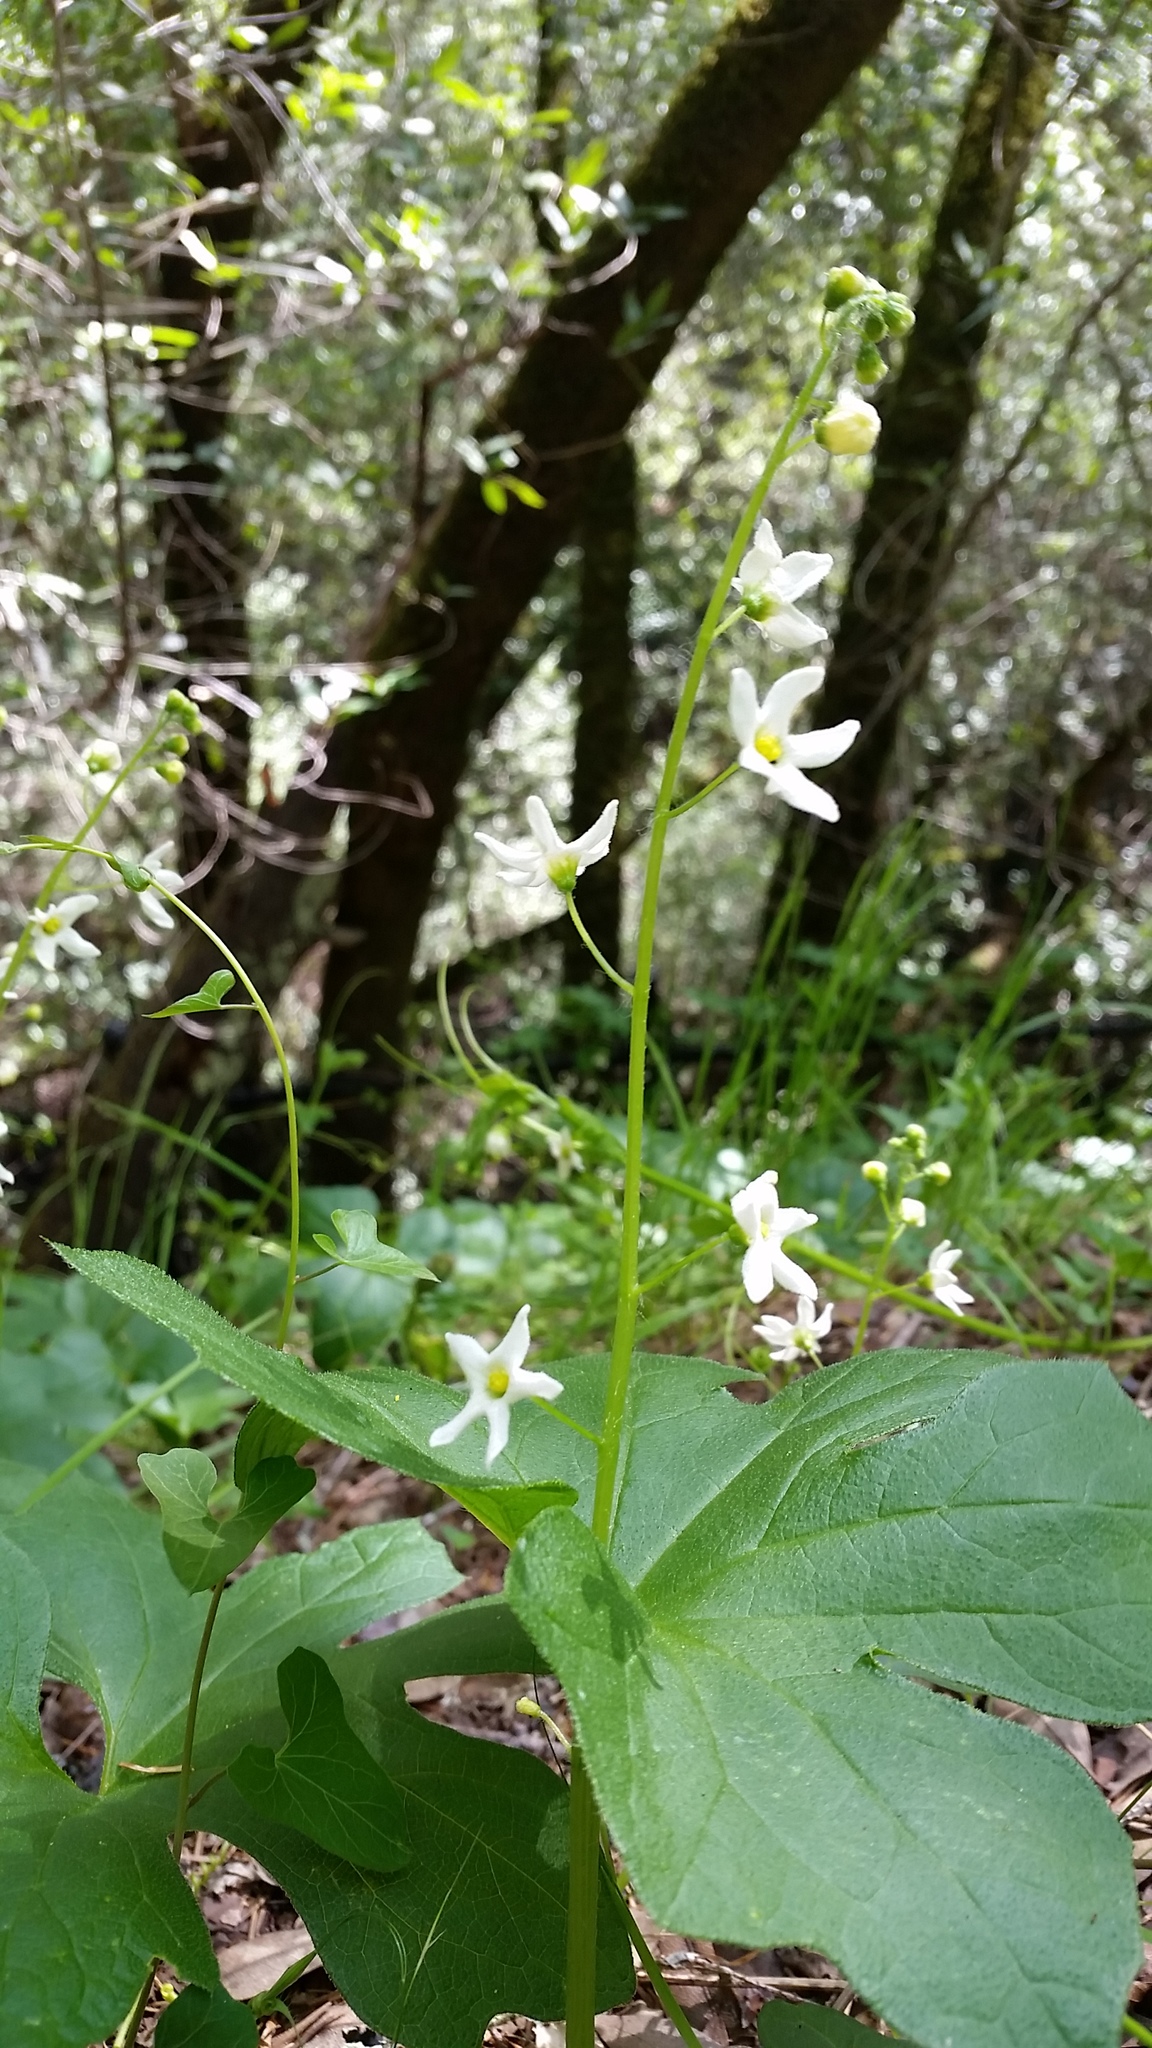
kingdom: Plantae
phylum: Tracheophyta
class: Magnoliopsida
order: Cucurbitales
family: Cucurbitaceae
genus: Marah
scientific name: Marah oregana
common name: Coastal manroot
